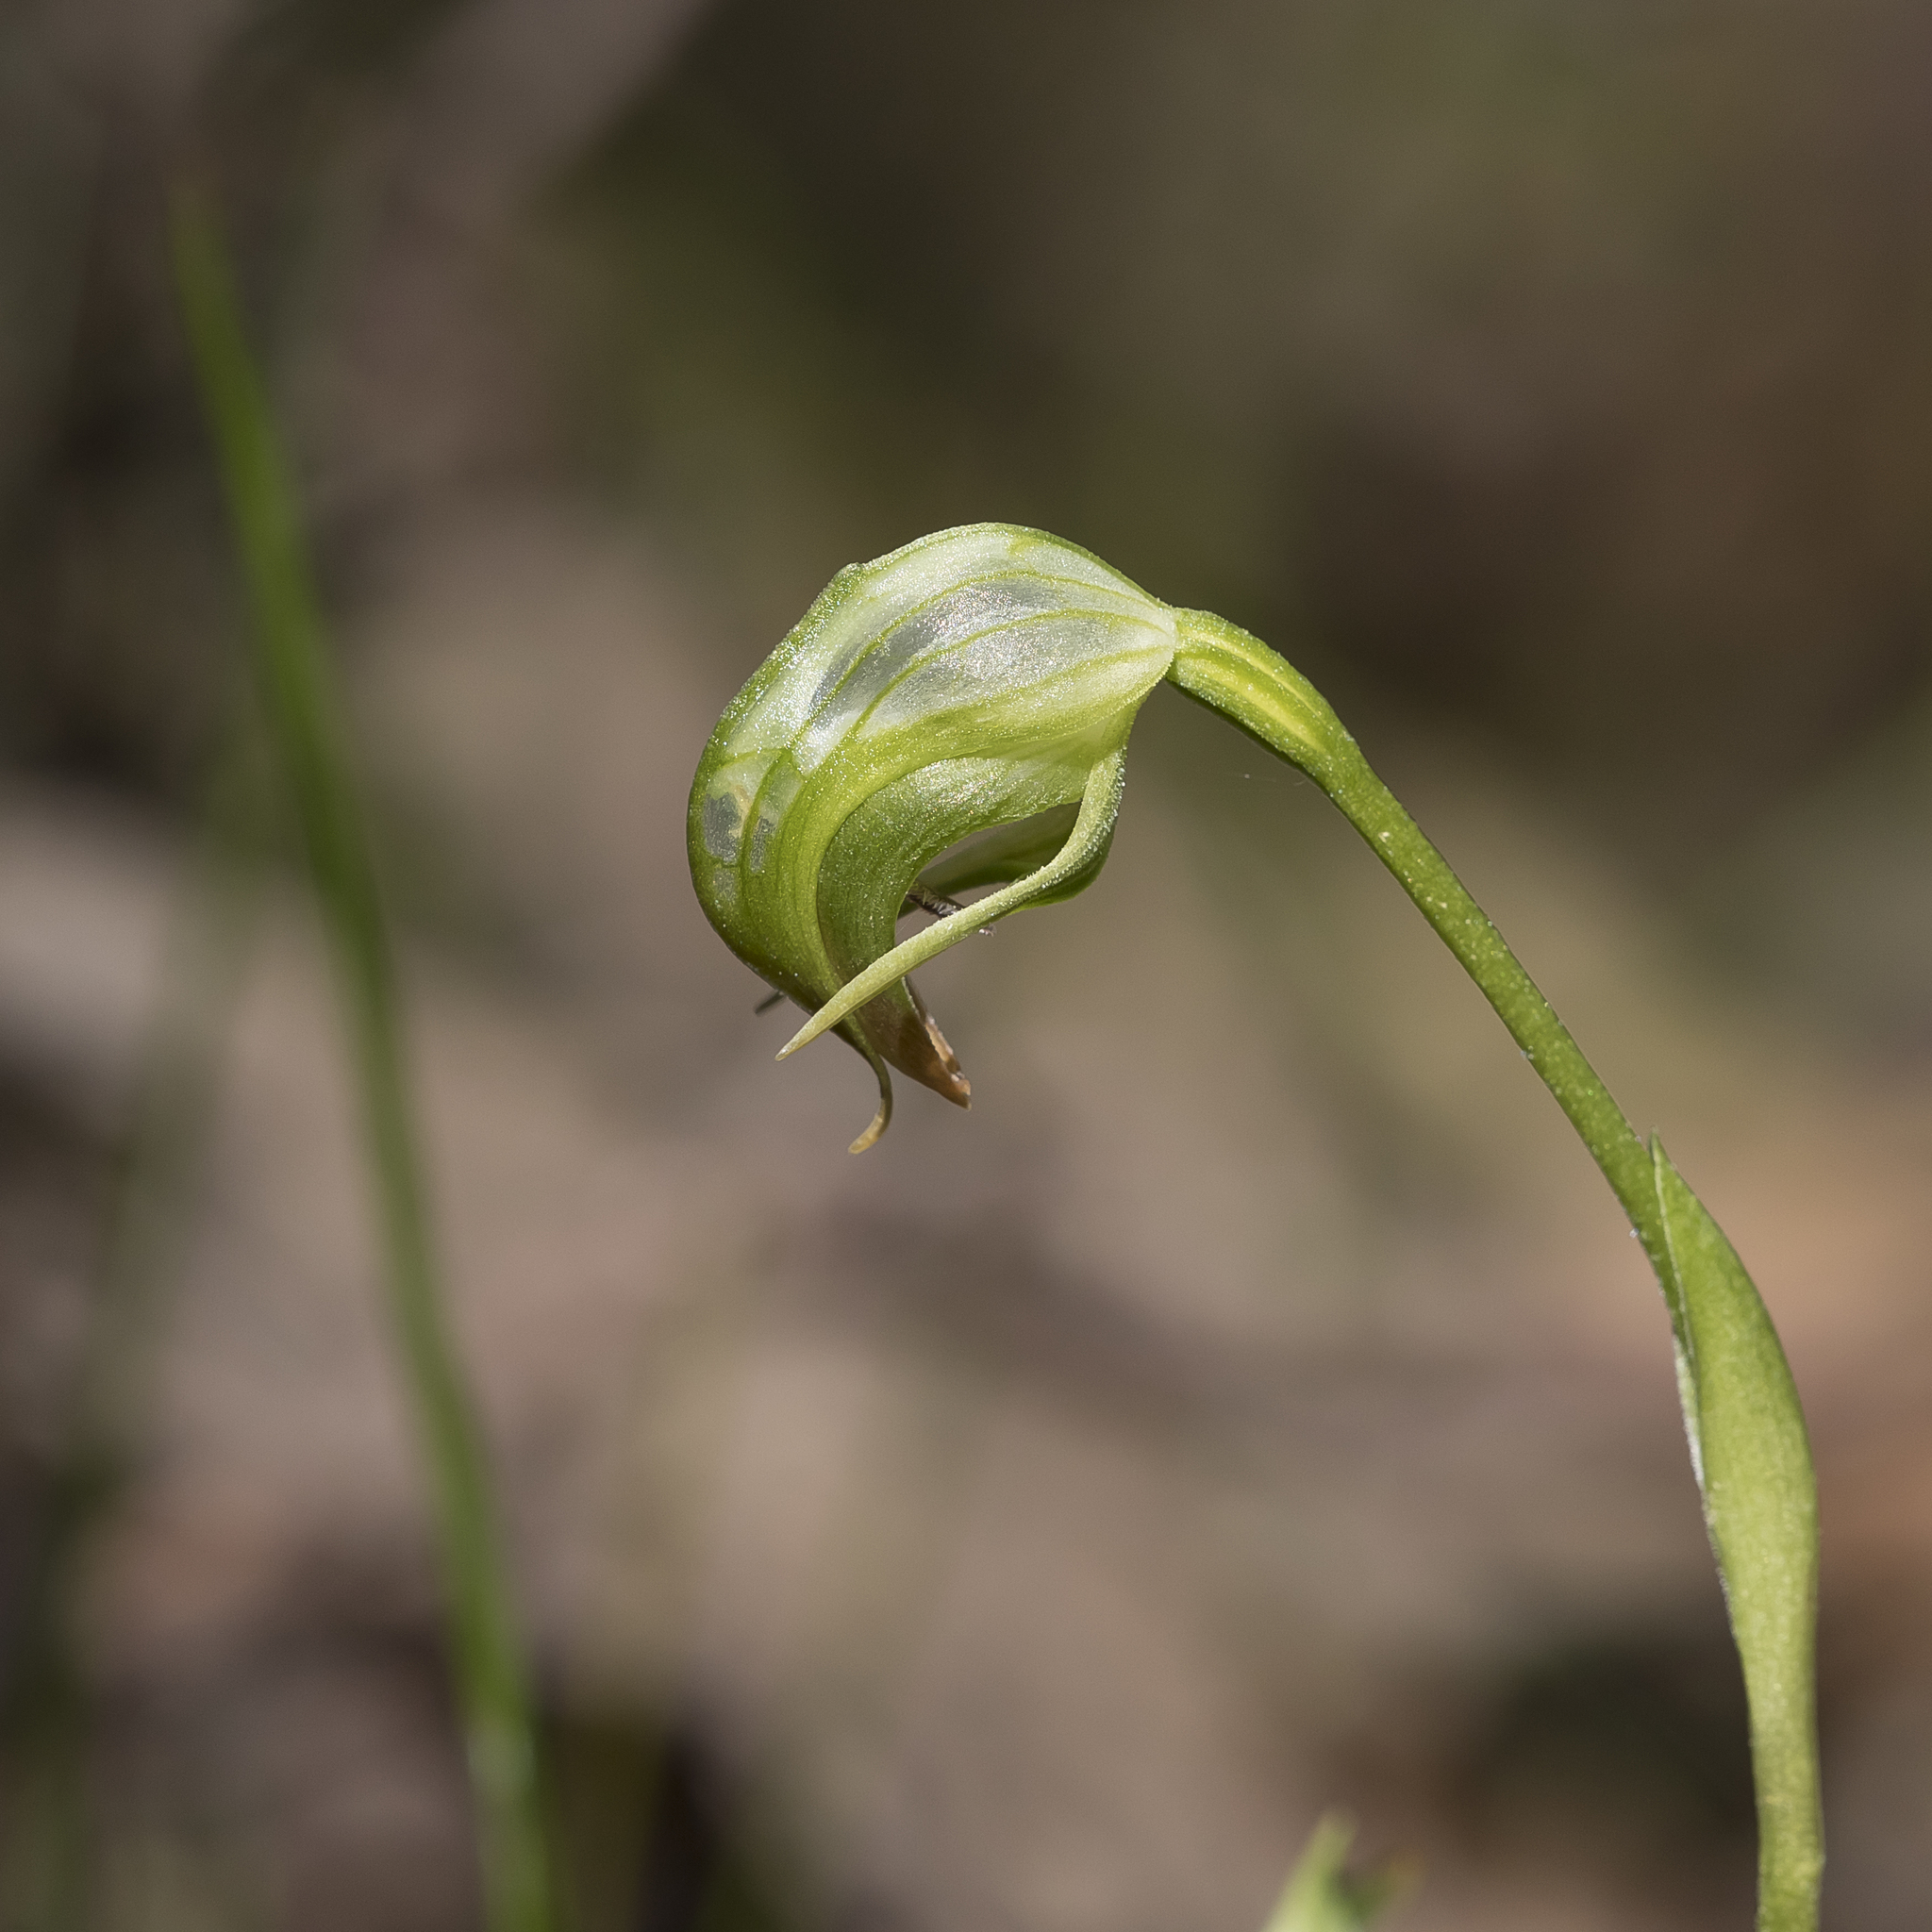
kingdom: Plantae
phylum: Tracheophyta
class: Liliopsida
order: Asparagales
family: Orchidaceae
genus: Pterostylis
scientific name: Pterostylis nutans
